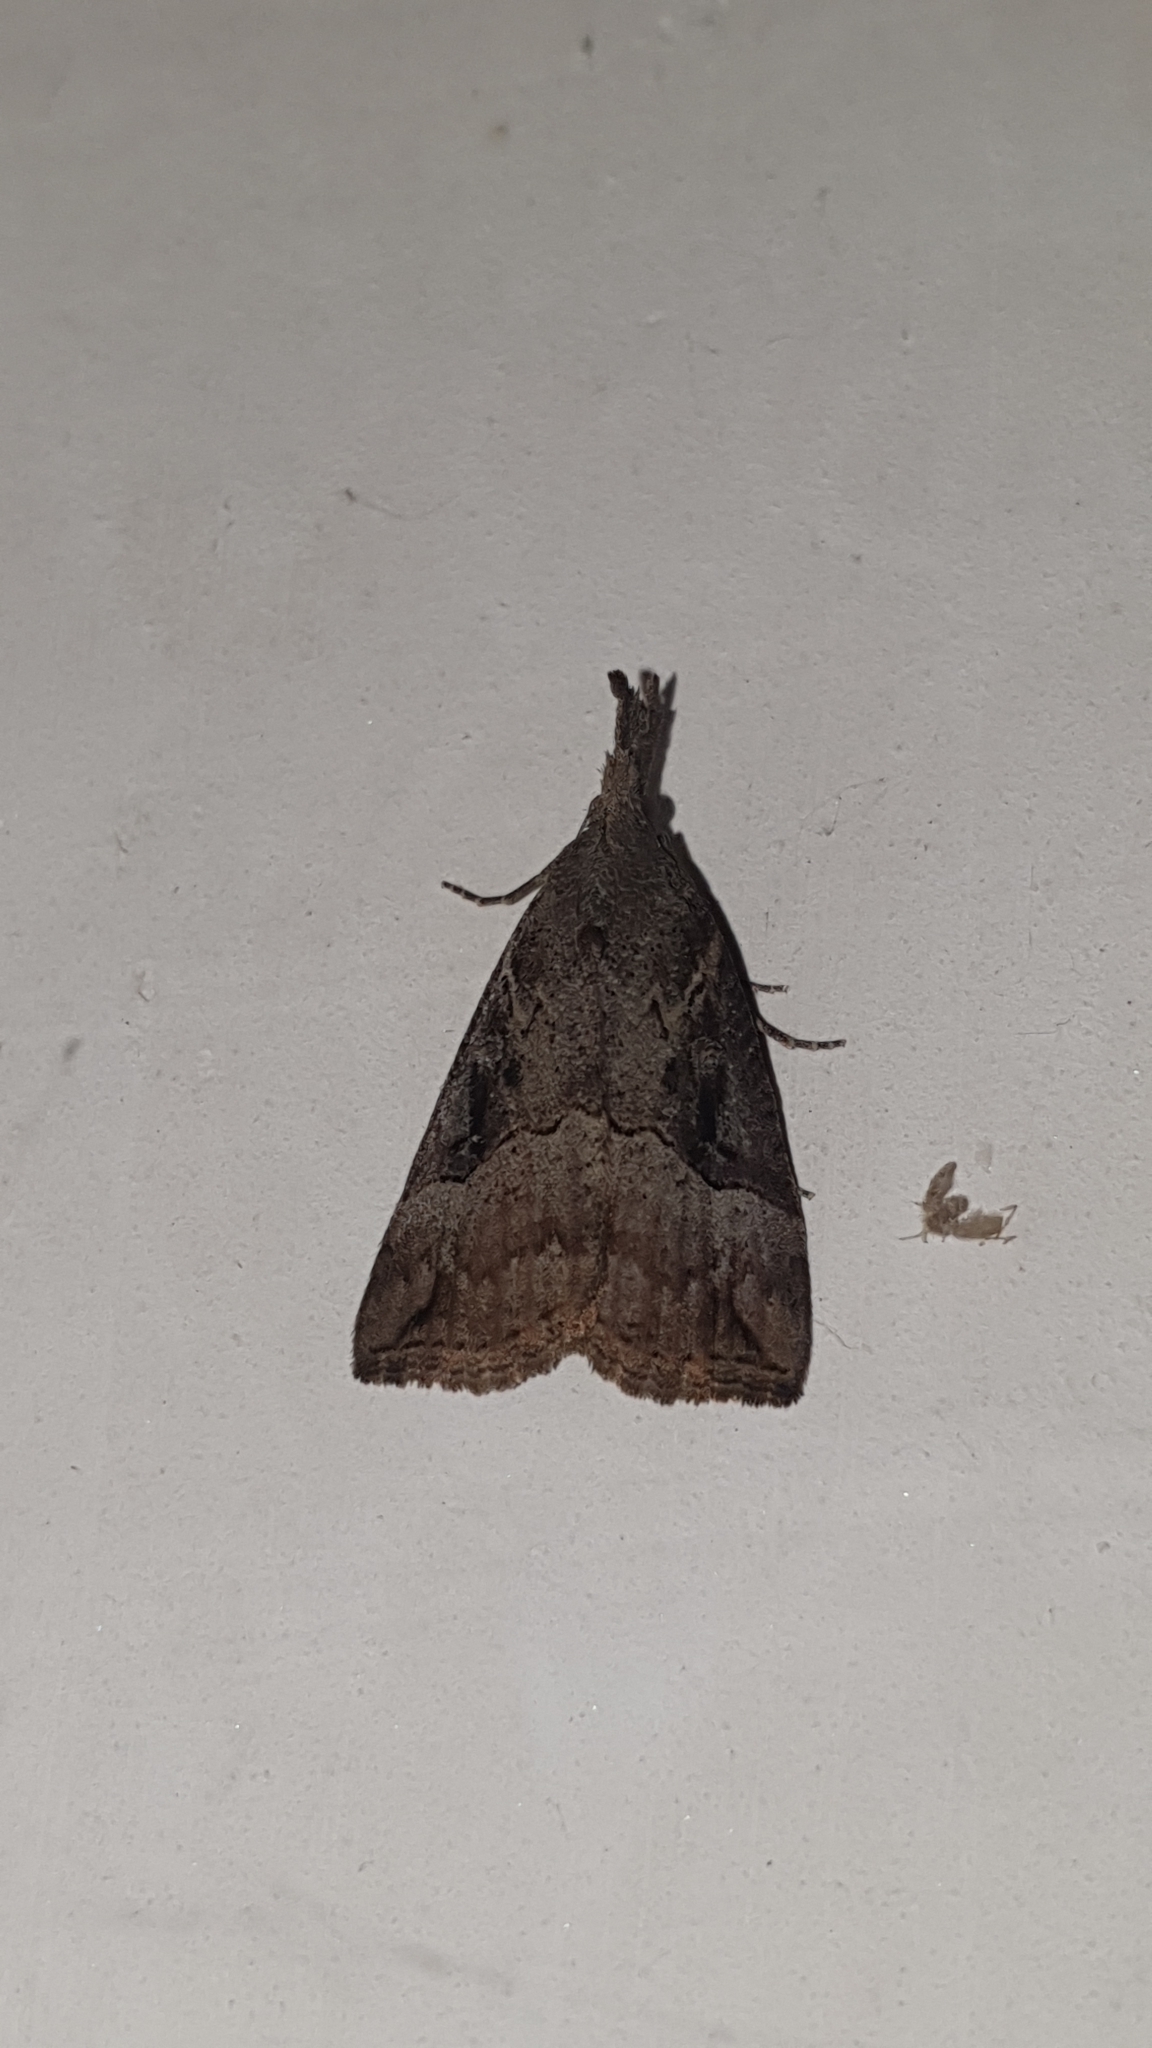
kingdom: Animalia
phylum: Arthropoda
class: Insecta
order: Lepidoptera
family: Erebidae
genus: Hypena
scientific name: Hypena rostralis
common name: Buttoned snout
